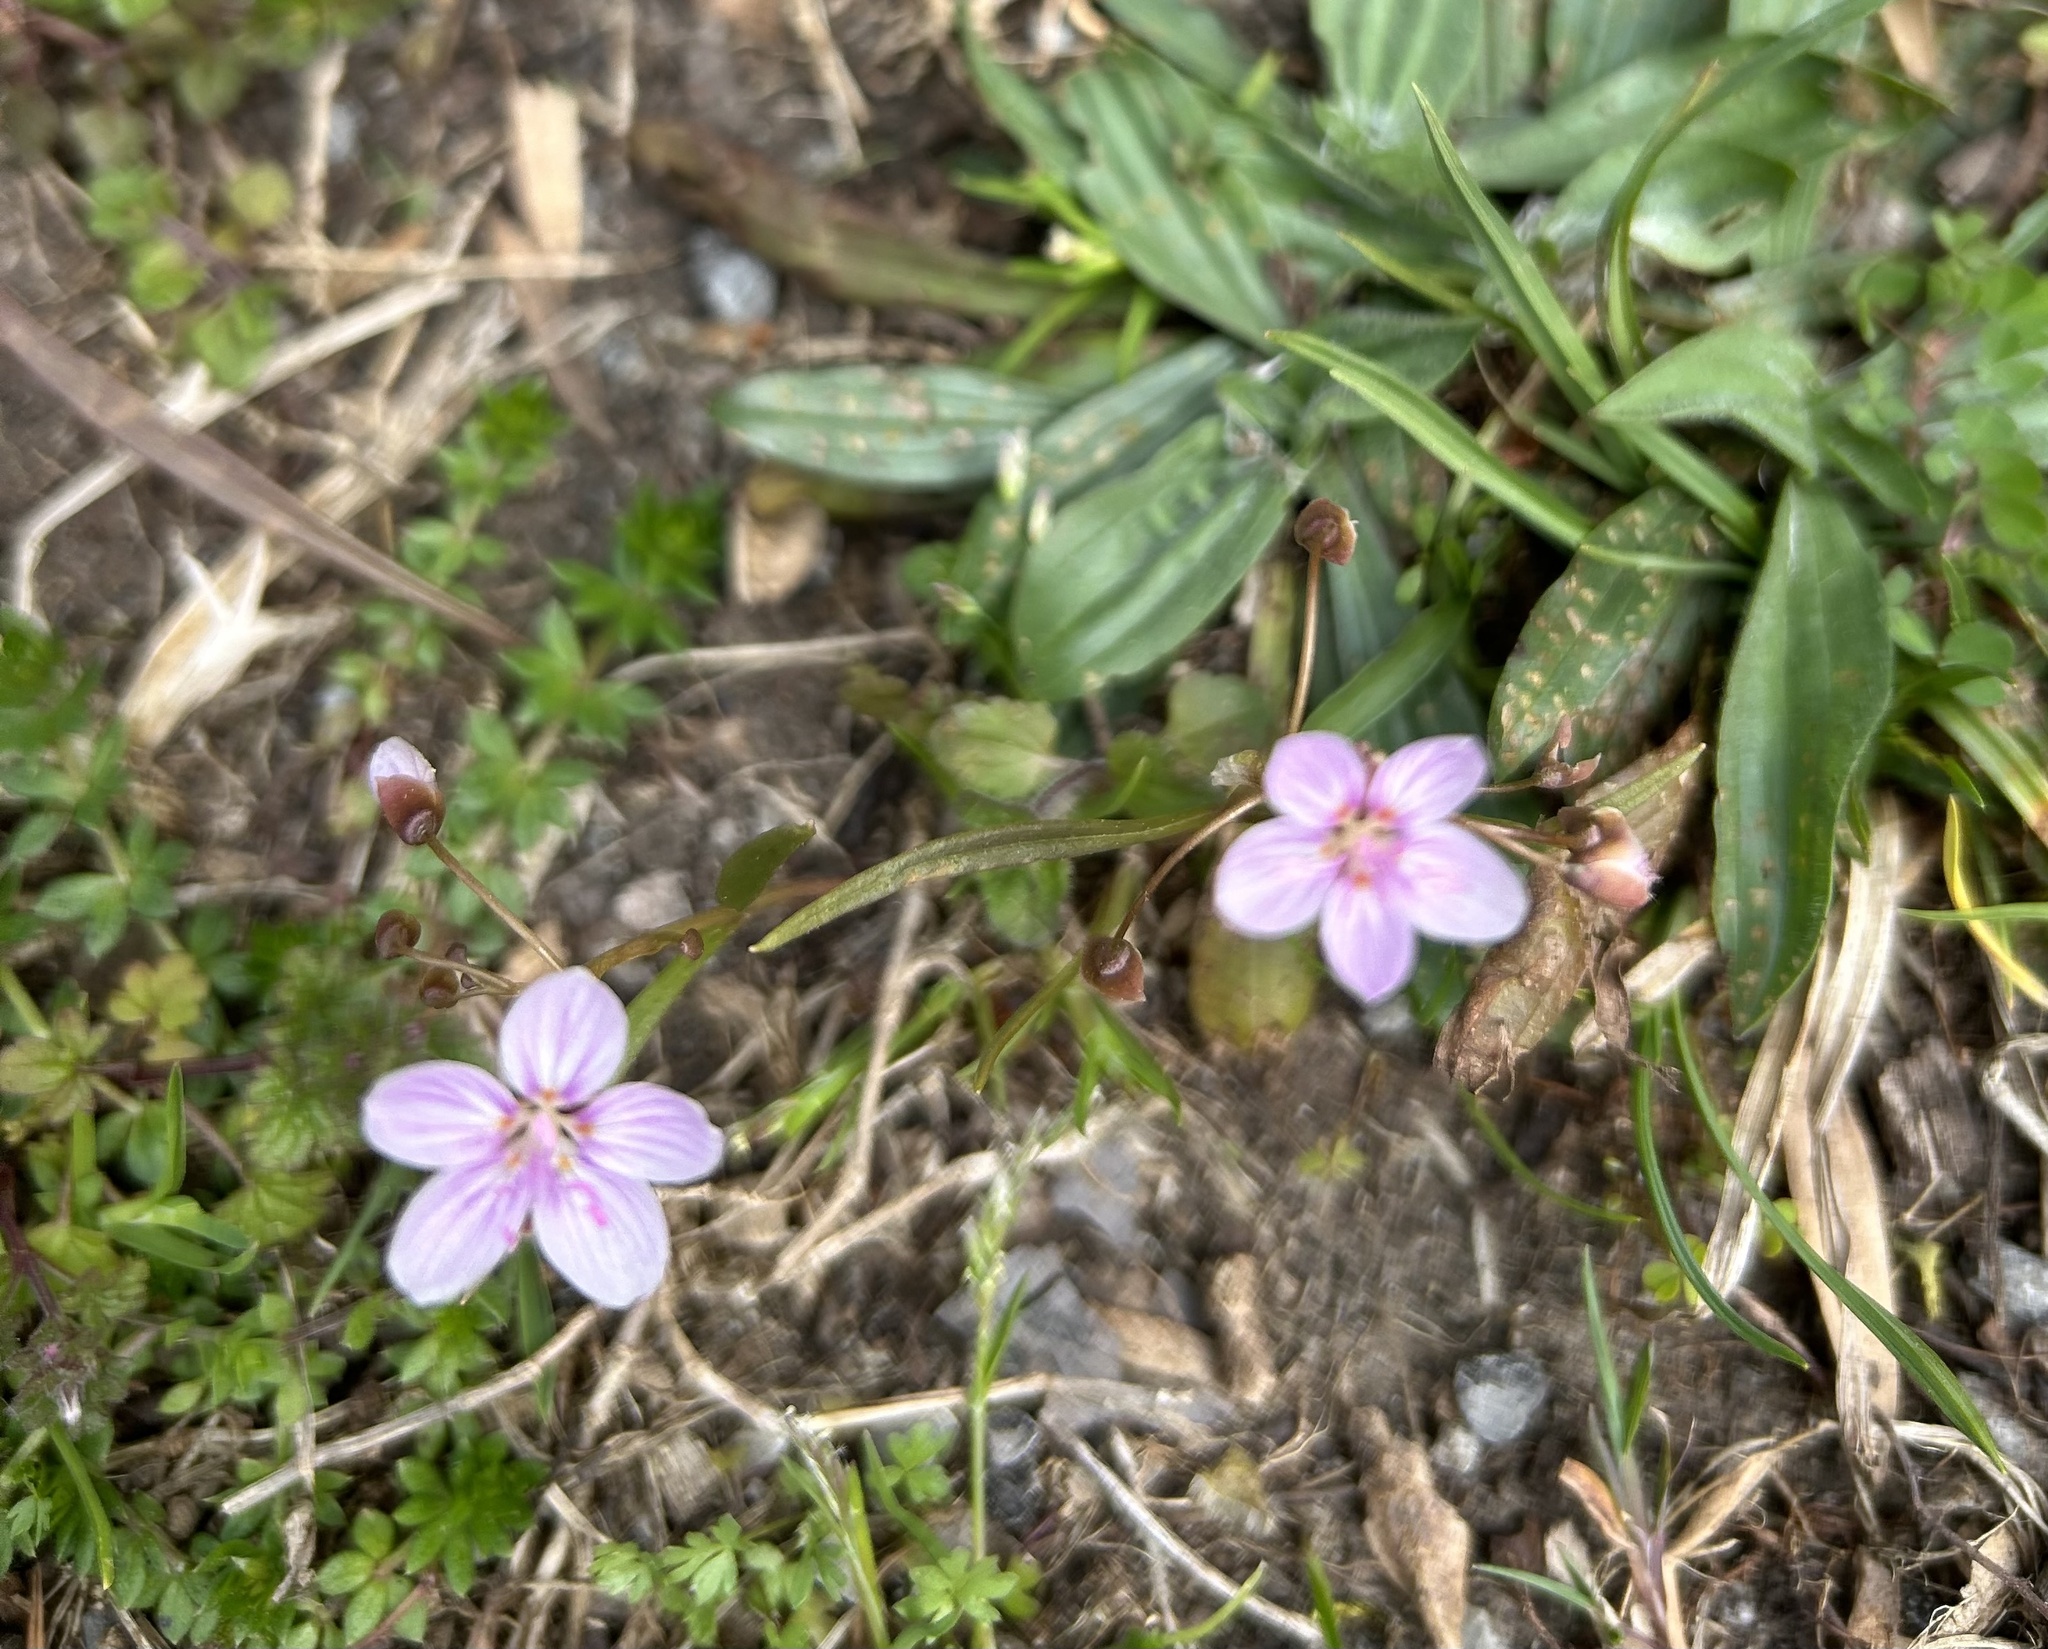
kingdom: Plantae
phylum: Tracheophyta
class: Magnoliopsida
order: Caryophyllales
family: Montiaceae
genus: Claytonia
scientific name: Claytonia virginica
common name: Virginia springbeauty
